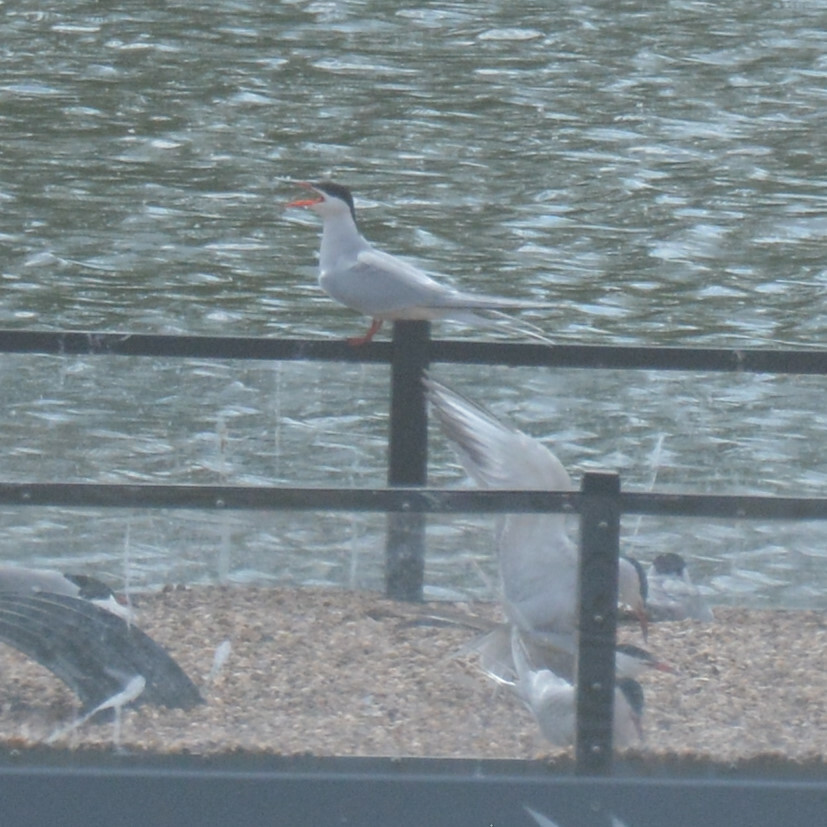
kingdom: Animalia
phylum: Chordata
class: Aves
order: Charadriiformes
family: Laridae
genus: Sterna
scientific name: Sterna hirundo
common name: Common tern
